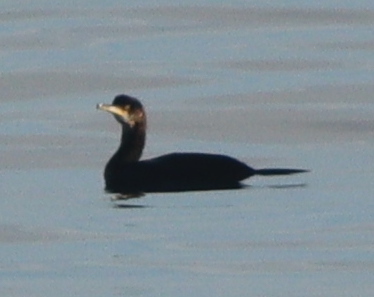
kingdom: Animalia
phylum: Chordata
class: Aves
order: Suliformes
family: Phalacrocoracidae
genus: Phalacrocorax
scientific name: Phalacrocorax aristotelis
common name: European shag
